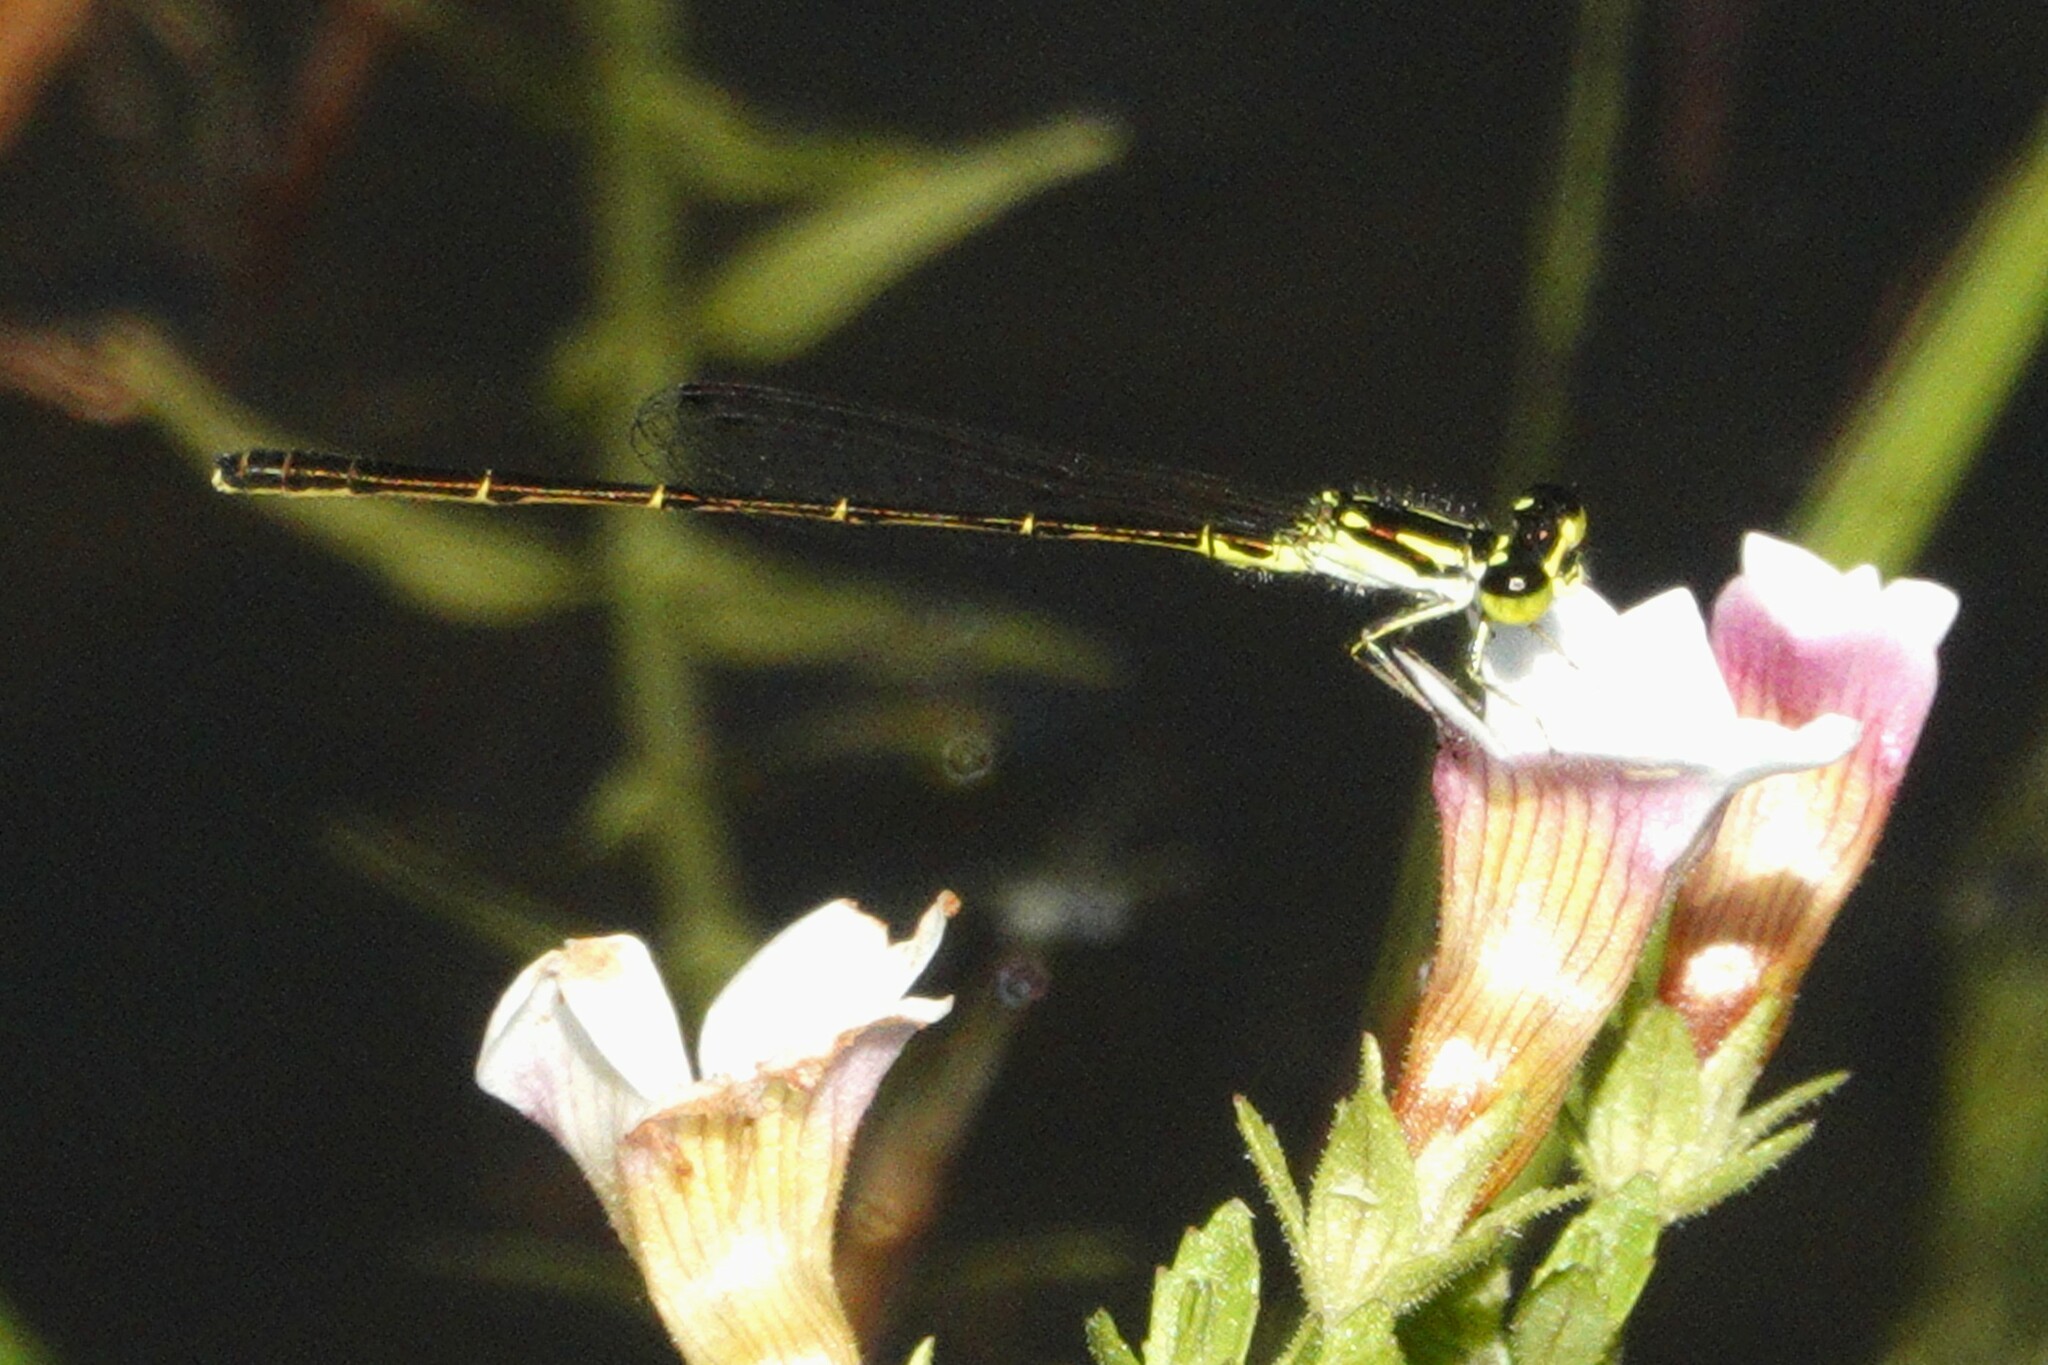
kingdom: Animalia
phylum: Arthropoda
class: Insecta
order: Odonata
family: Coenagrionidae
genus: Ischnura
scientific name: Ischnura posita
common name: Fragile forktail
